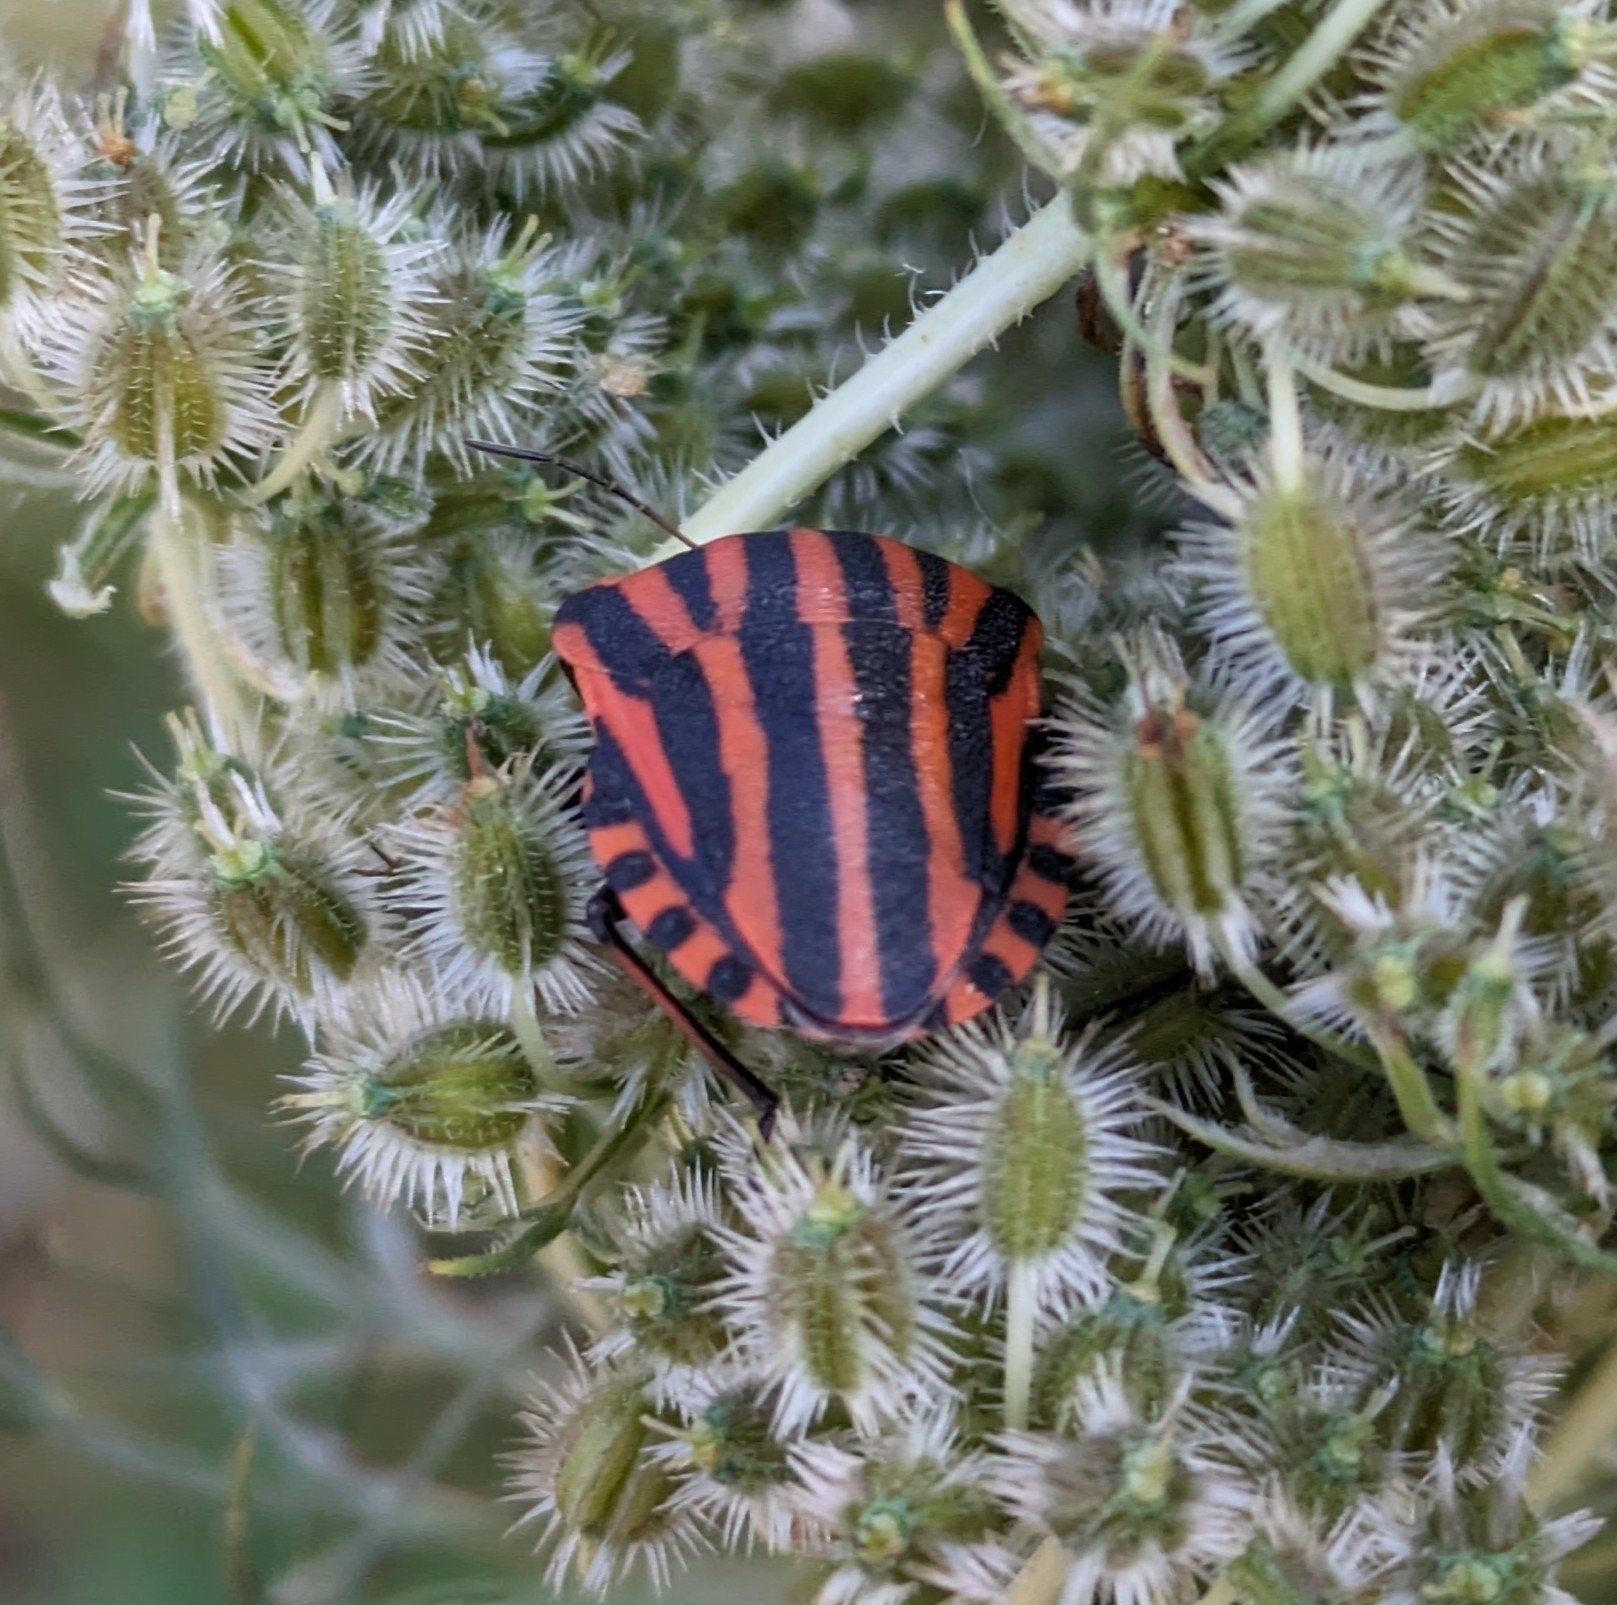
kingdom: Animalia
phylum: Arthropoda
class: Insecta
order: Hemiptera
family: Pentatomidae
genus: Graphosoma
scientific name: Graphosoma italicum
